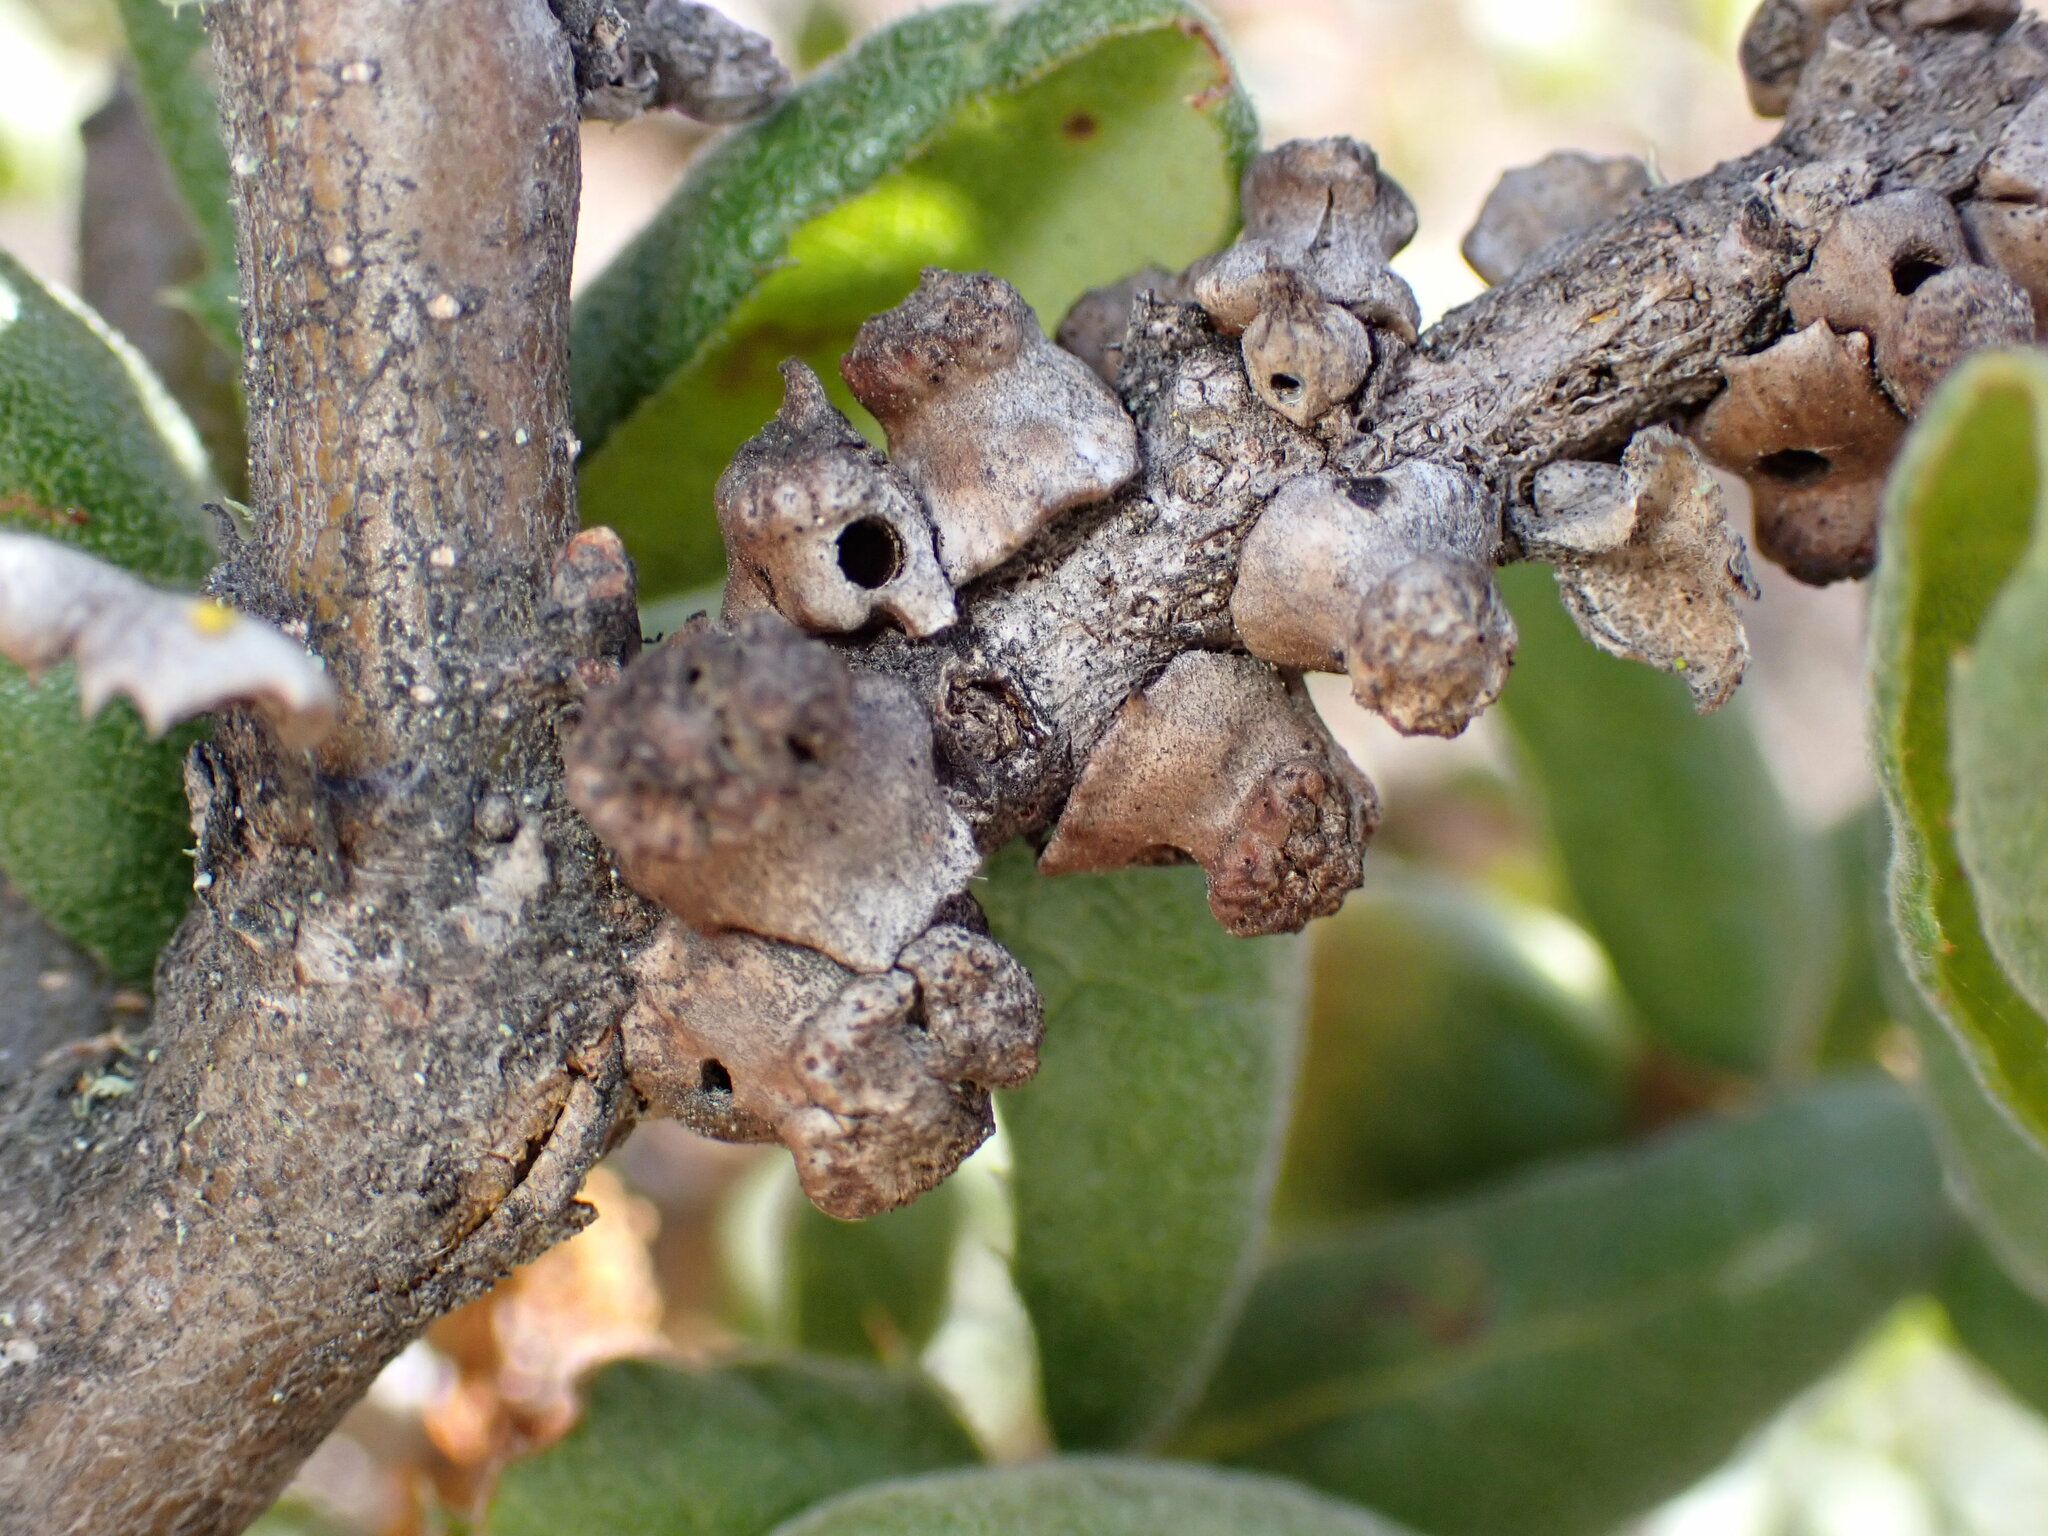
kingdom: Animalia
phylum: Arthropoda
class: Insecta
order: Hymenoptera
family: Cynipidae
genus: Disholcaspis
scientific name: Disholcaspis prehensa
